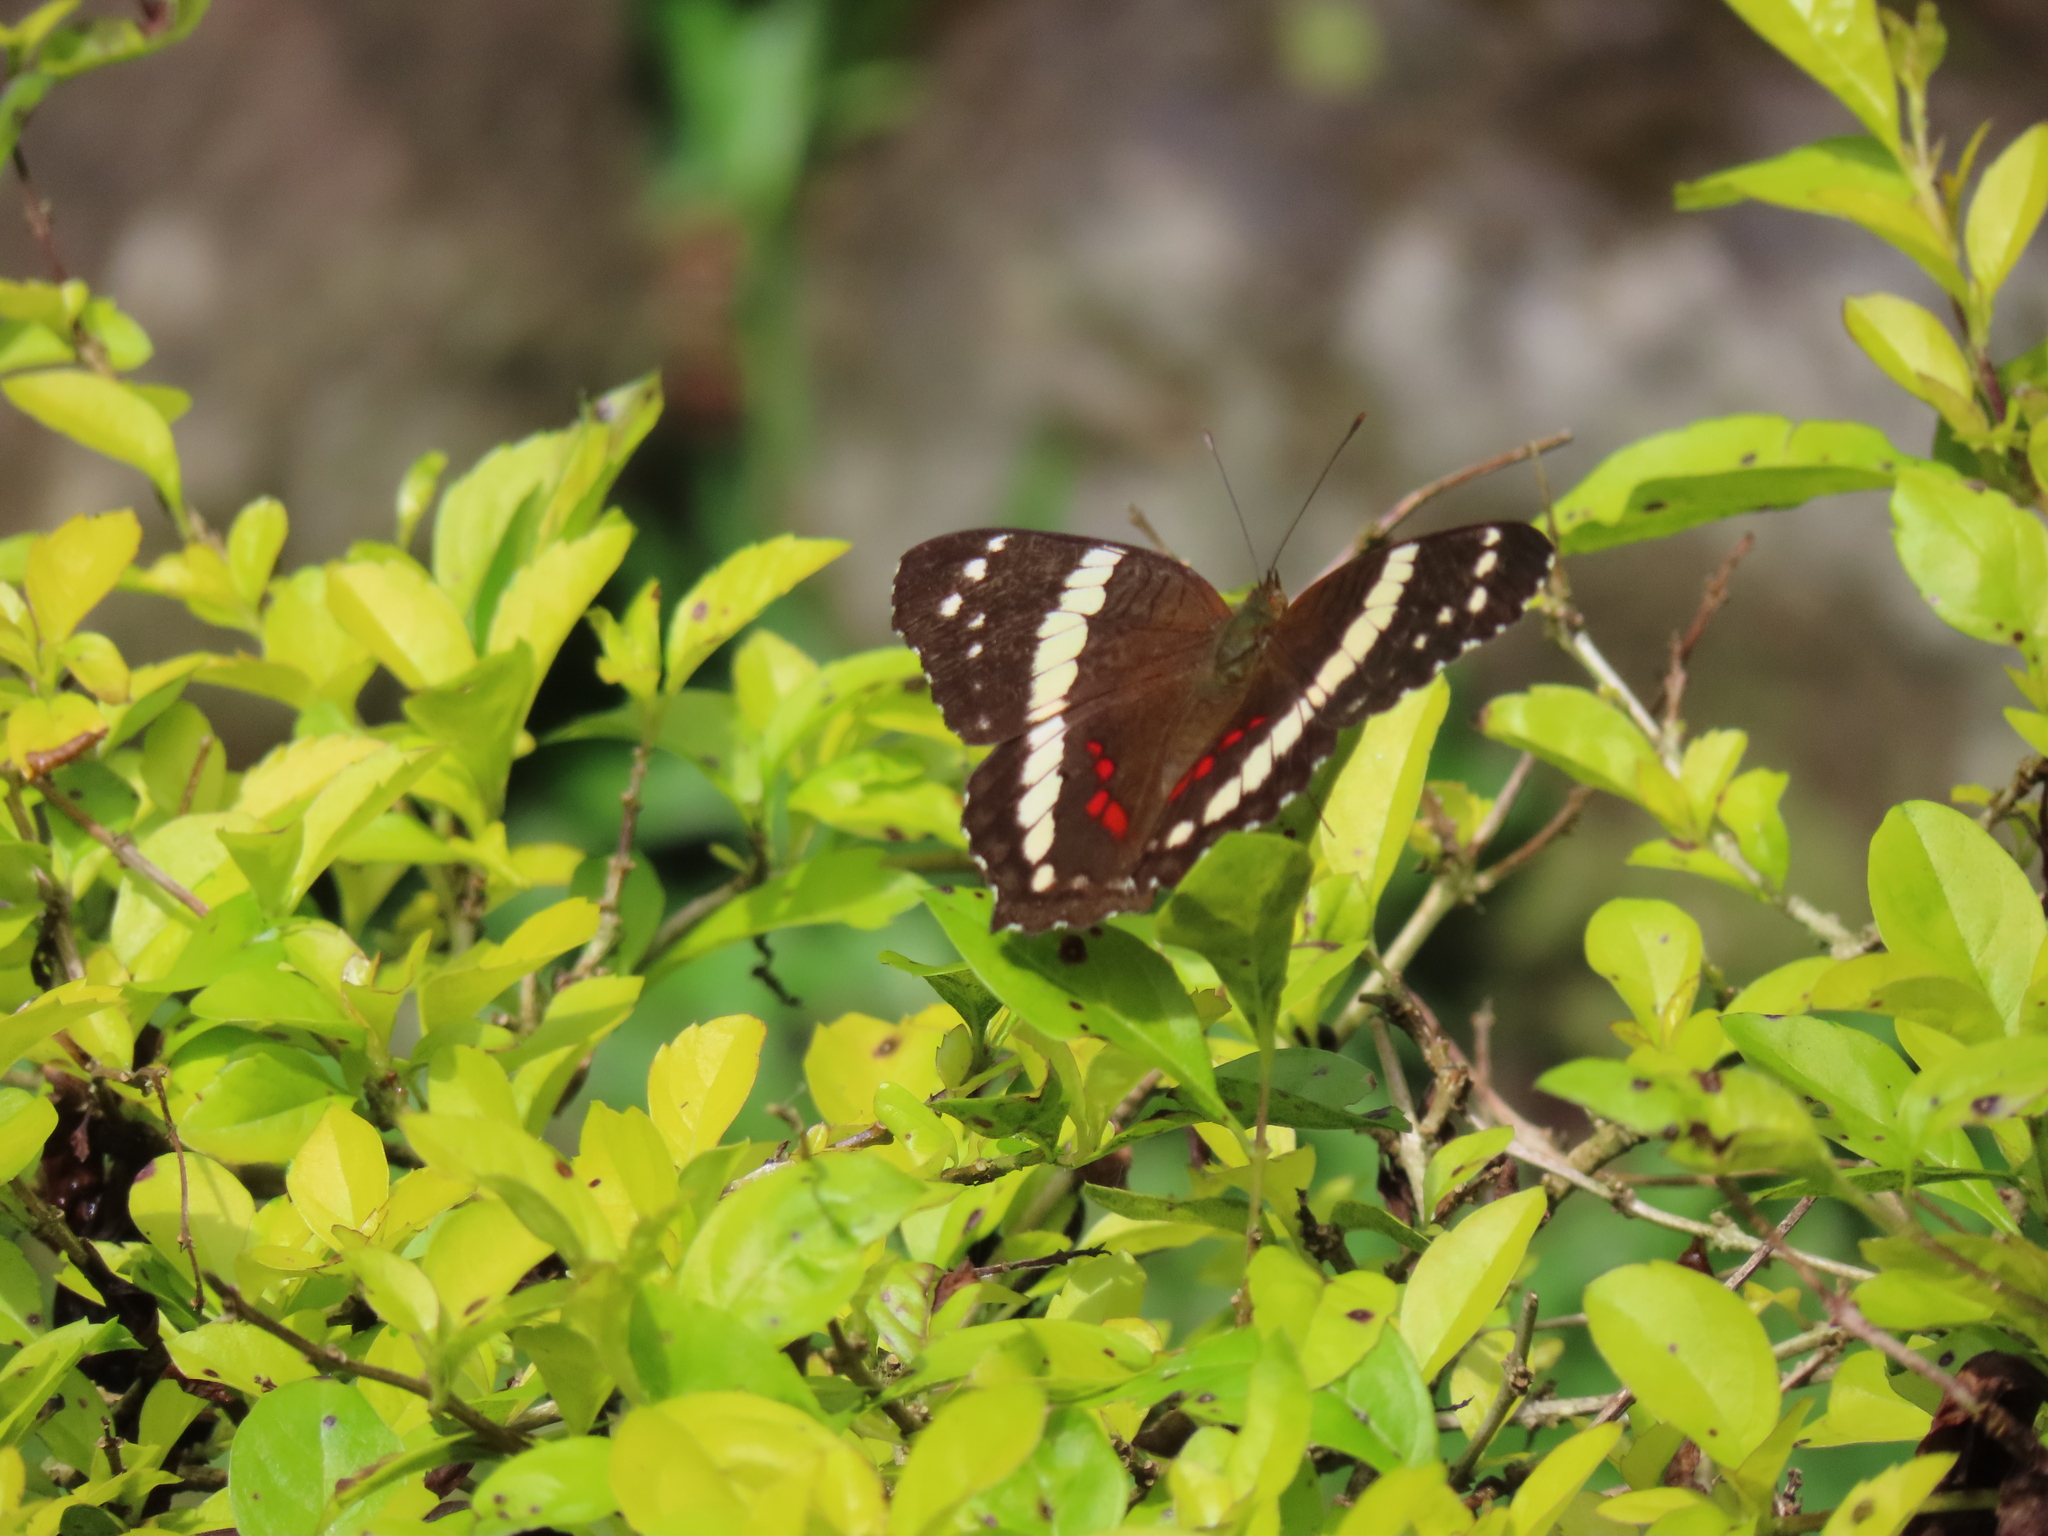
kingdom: Animalia
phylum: Arthropoda
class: Insecta
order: Lepidoptera
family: Nymphalidae
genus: Anartia
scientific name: Anartia fatima
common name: Banded peacock
